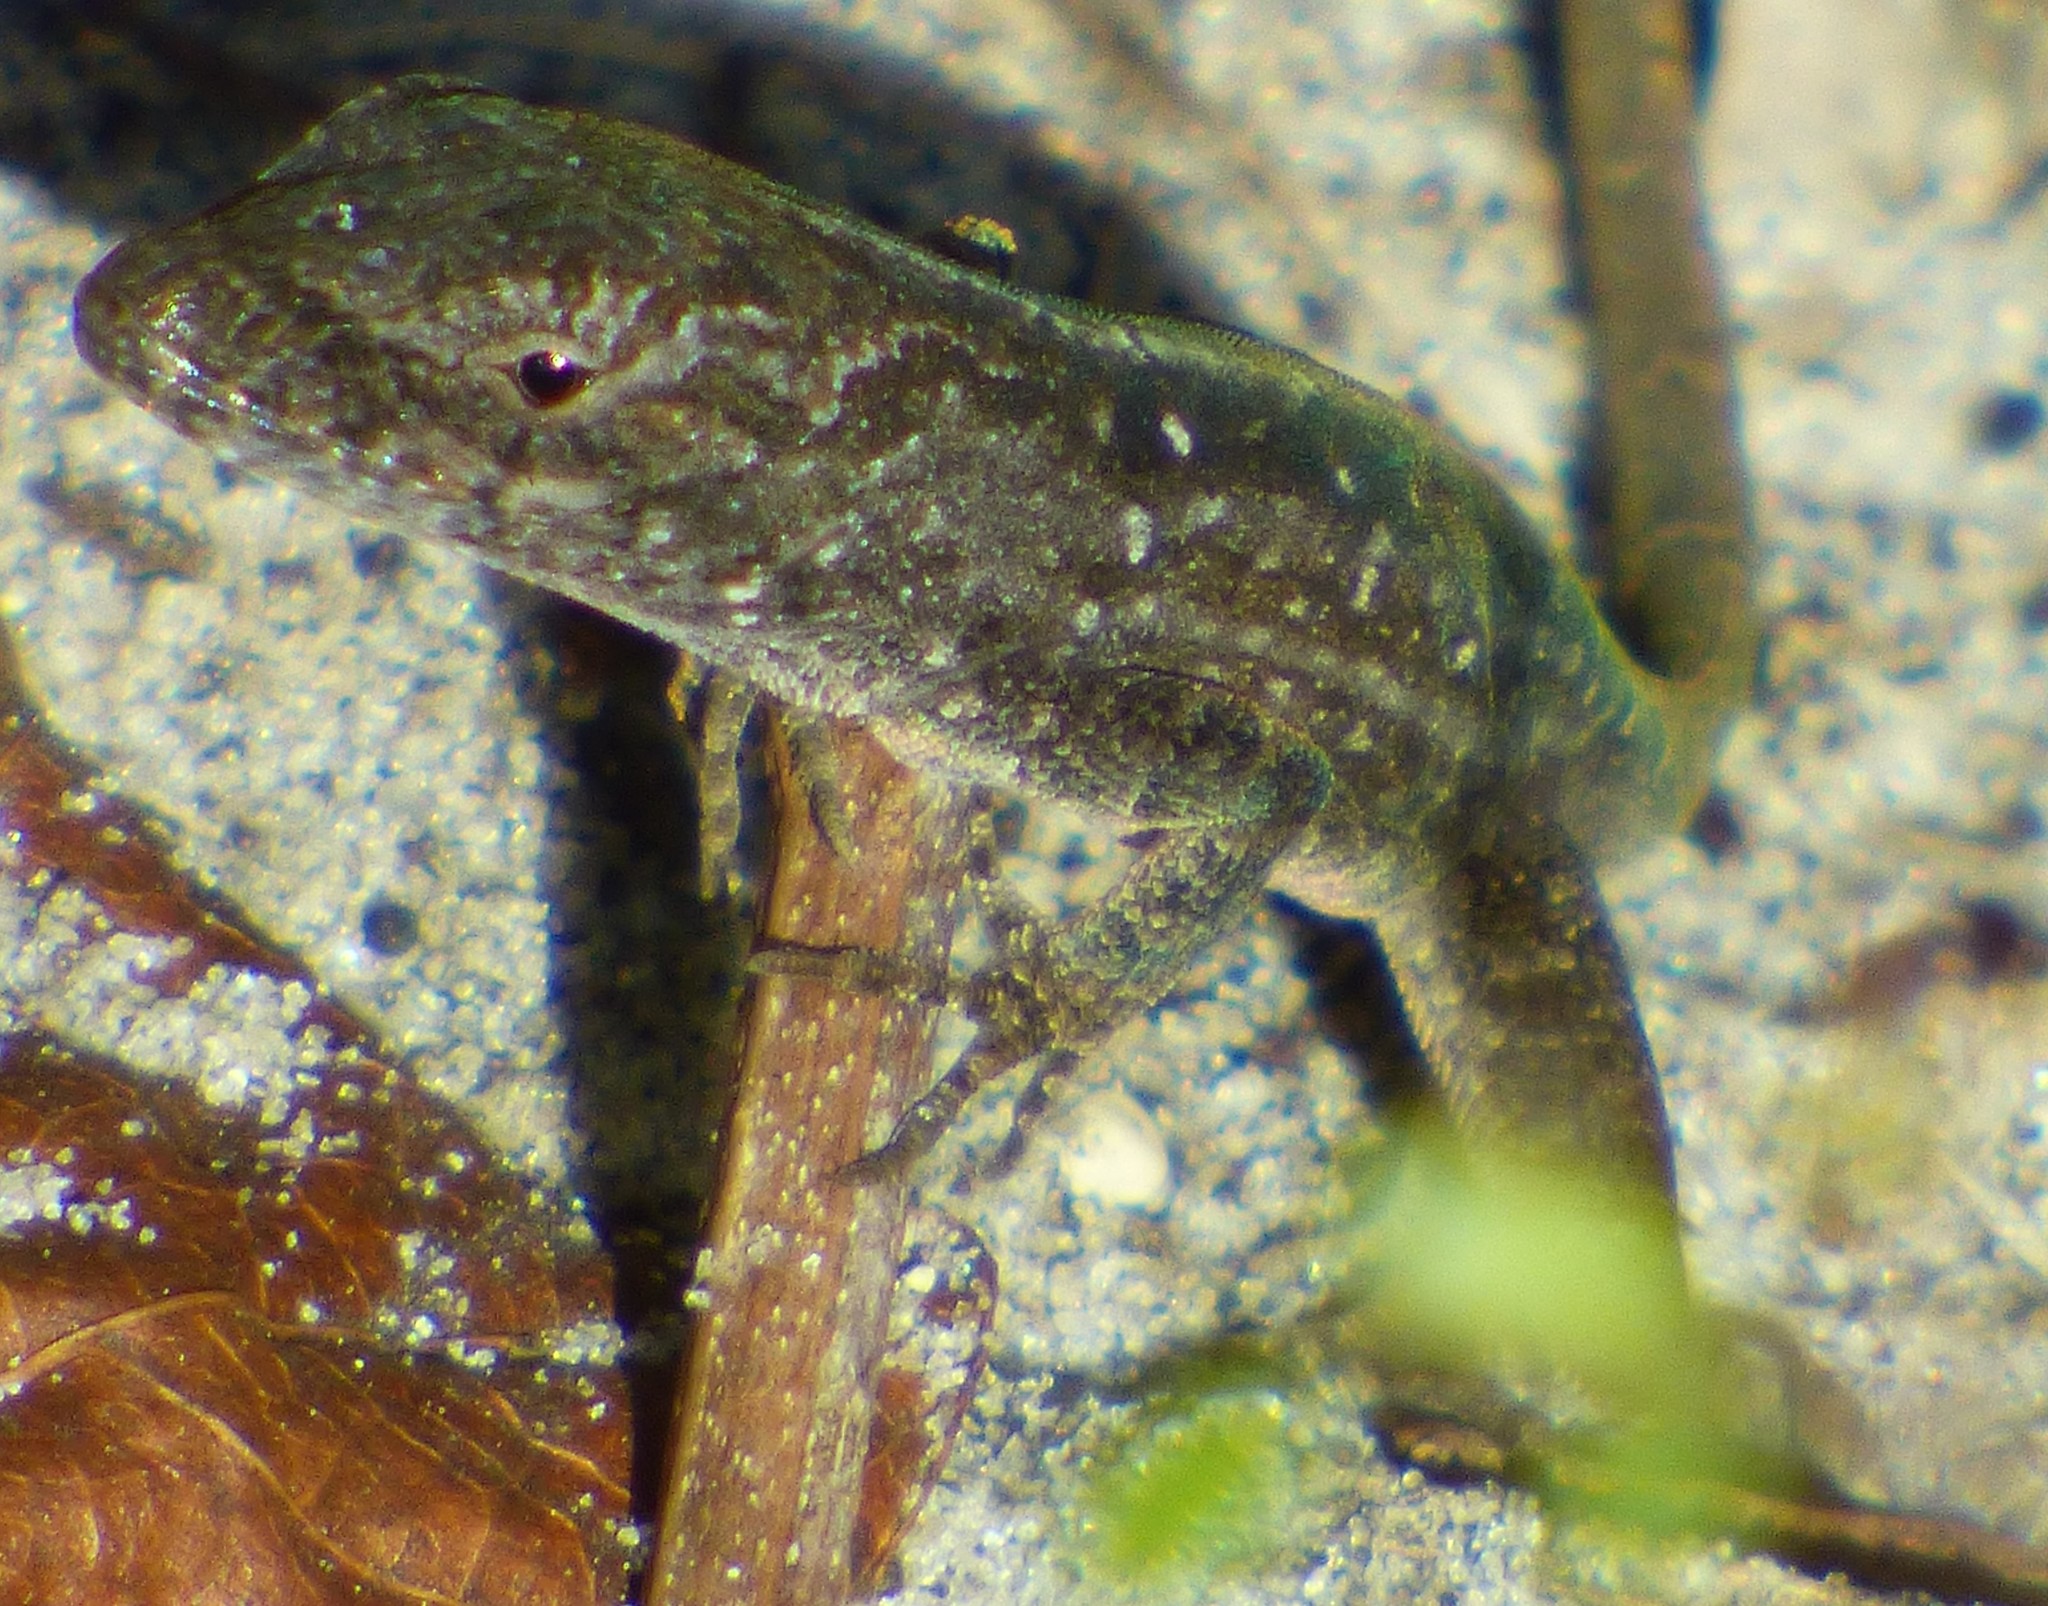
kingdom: Animalia
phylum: Chordata
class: Squamata
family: Dactyloidae
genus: Anolis
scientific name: Anolis sagrei
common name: Brown anole
